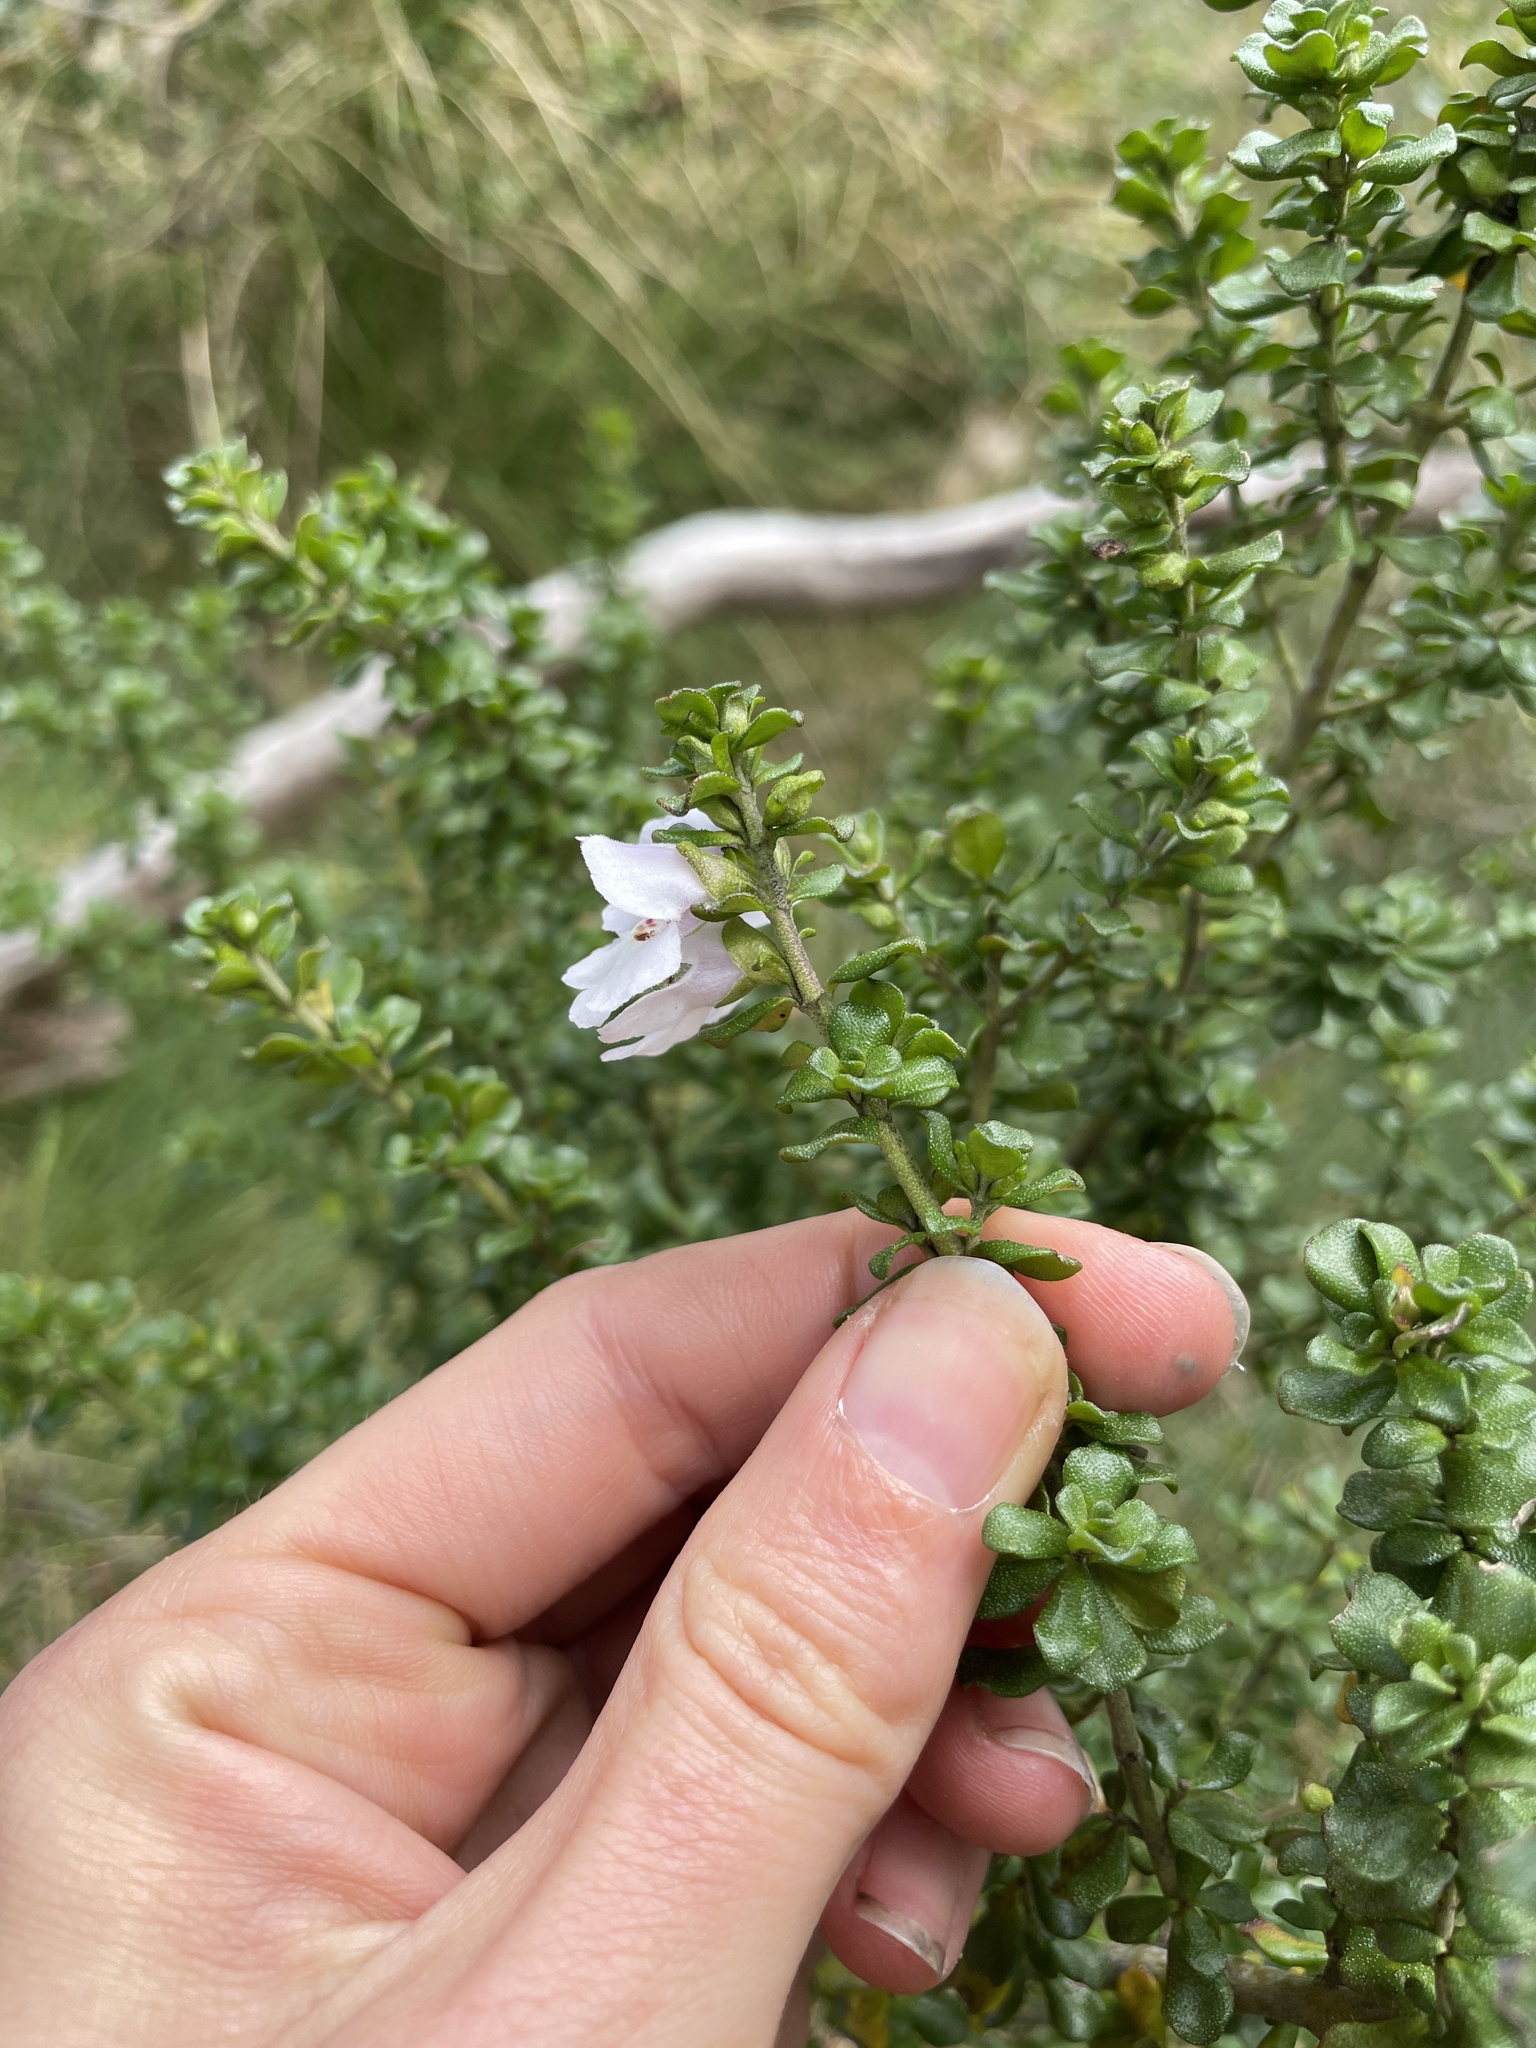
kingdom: Plantae
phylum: Tracheophyta
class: Magnoliopsida
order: Lamiales
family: Lamiaceae
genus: Prostanthera
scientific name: Prostanthera cuneata
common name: Alpine mintbush
